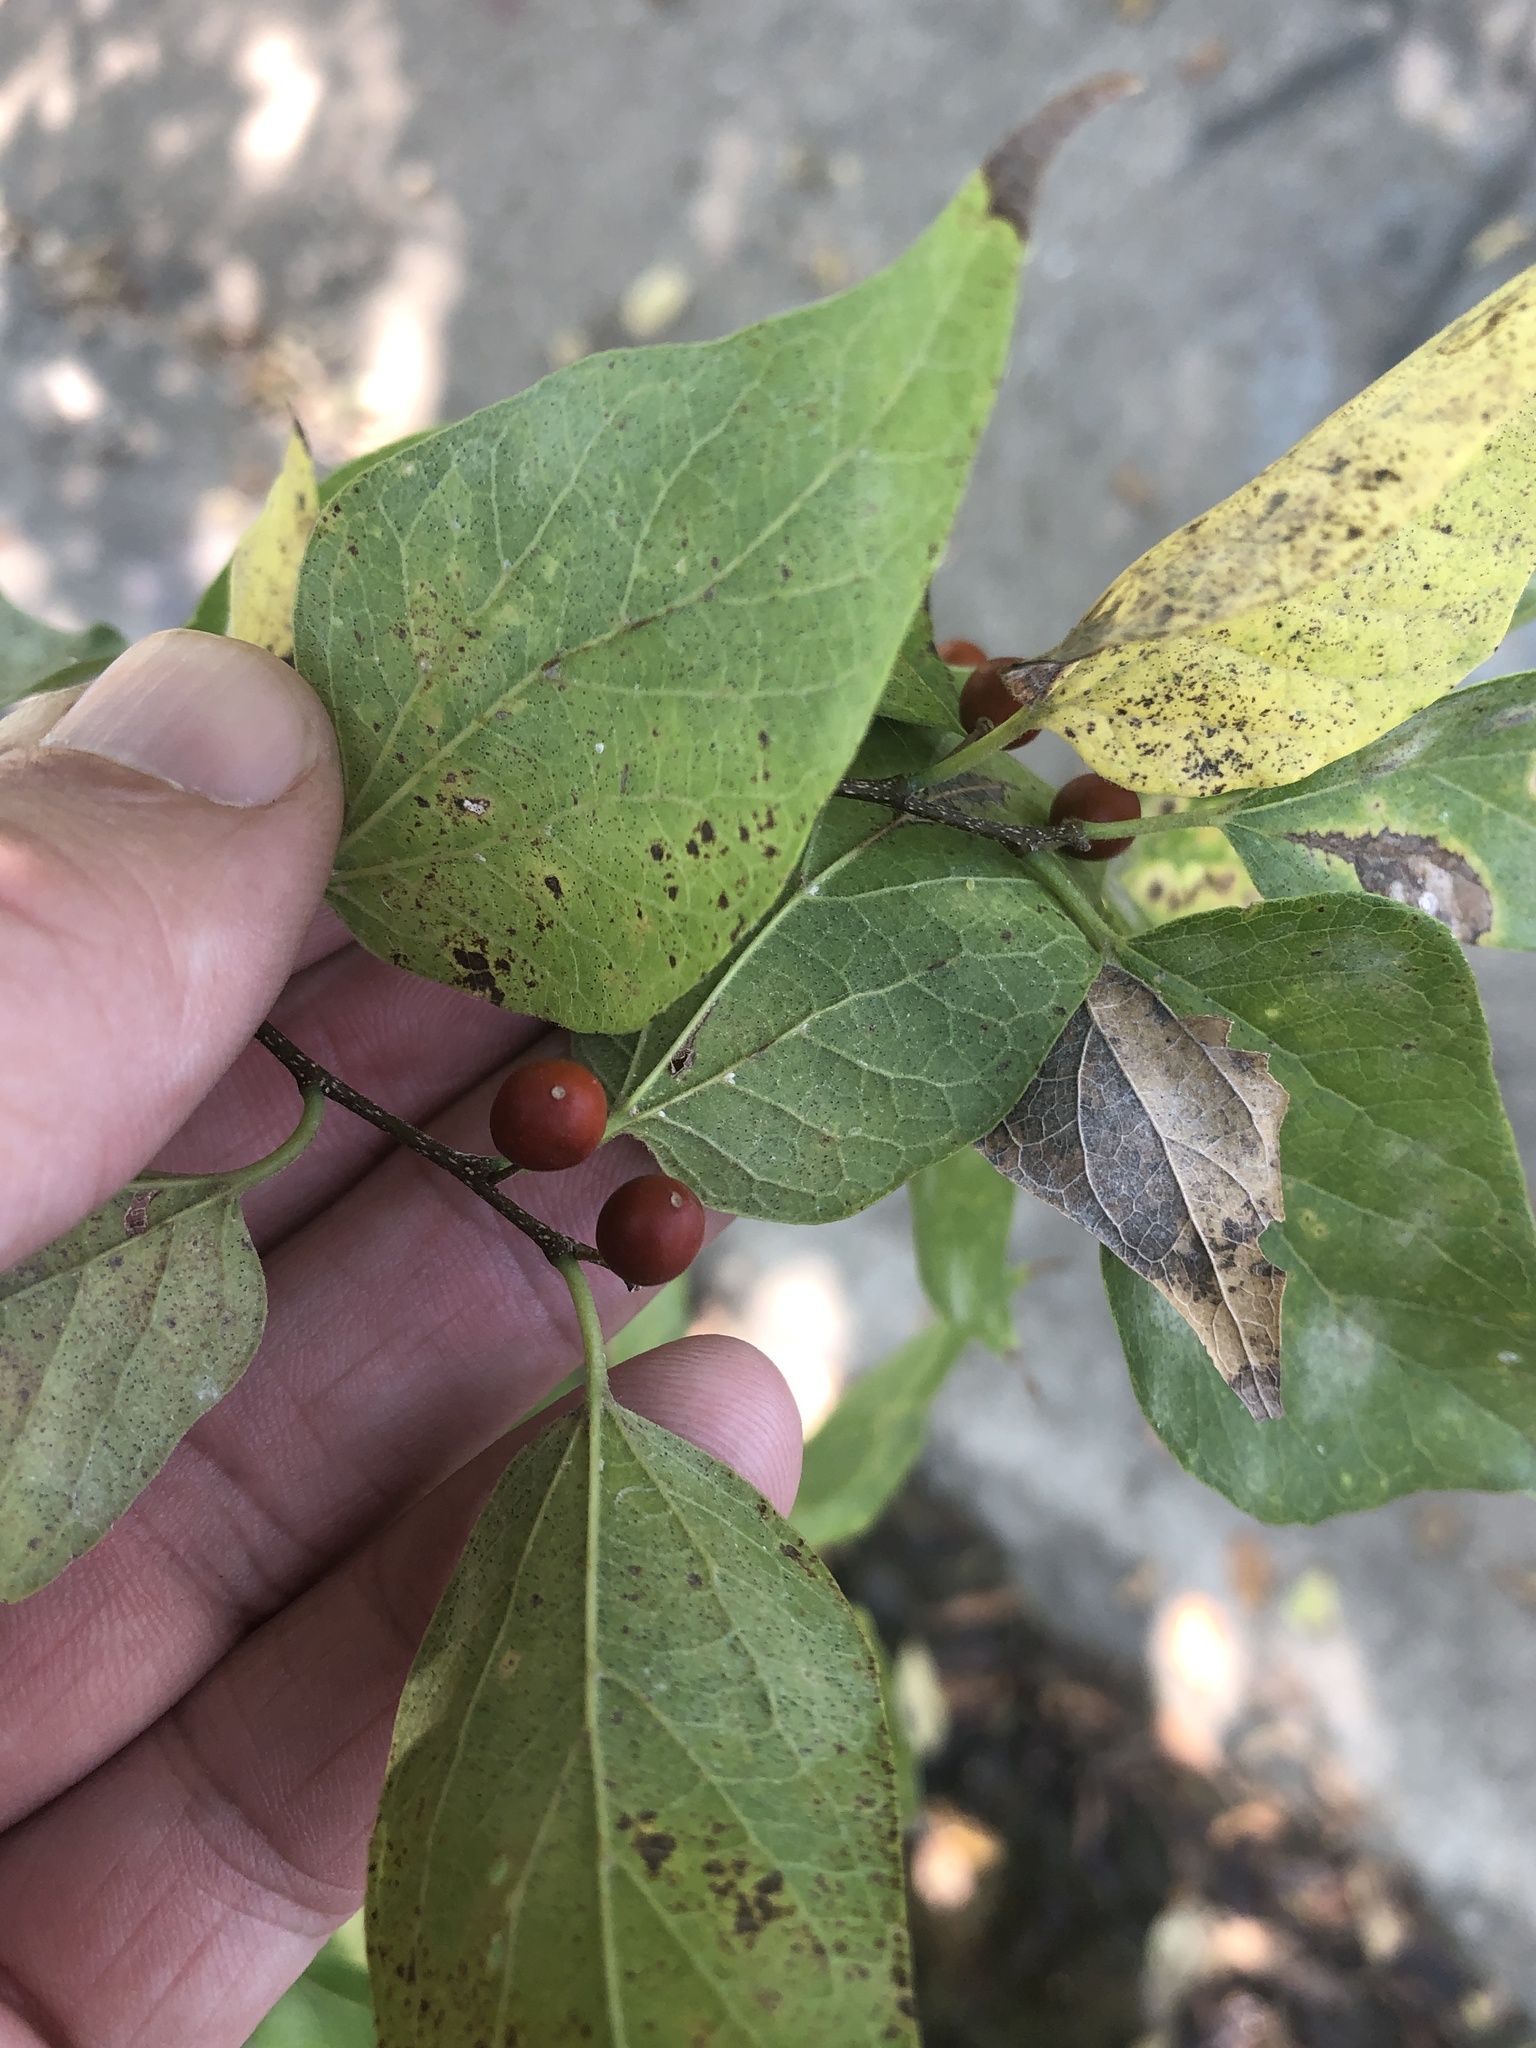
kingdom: Plantae
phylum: Tracheophyta
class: Magnoliopsida
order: Rosales
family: Cannabaceae
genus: Celtis
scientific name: Celtis laevigata
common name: Sugarberry
